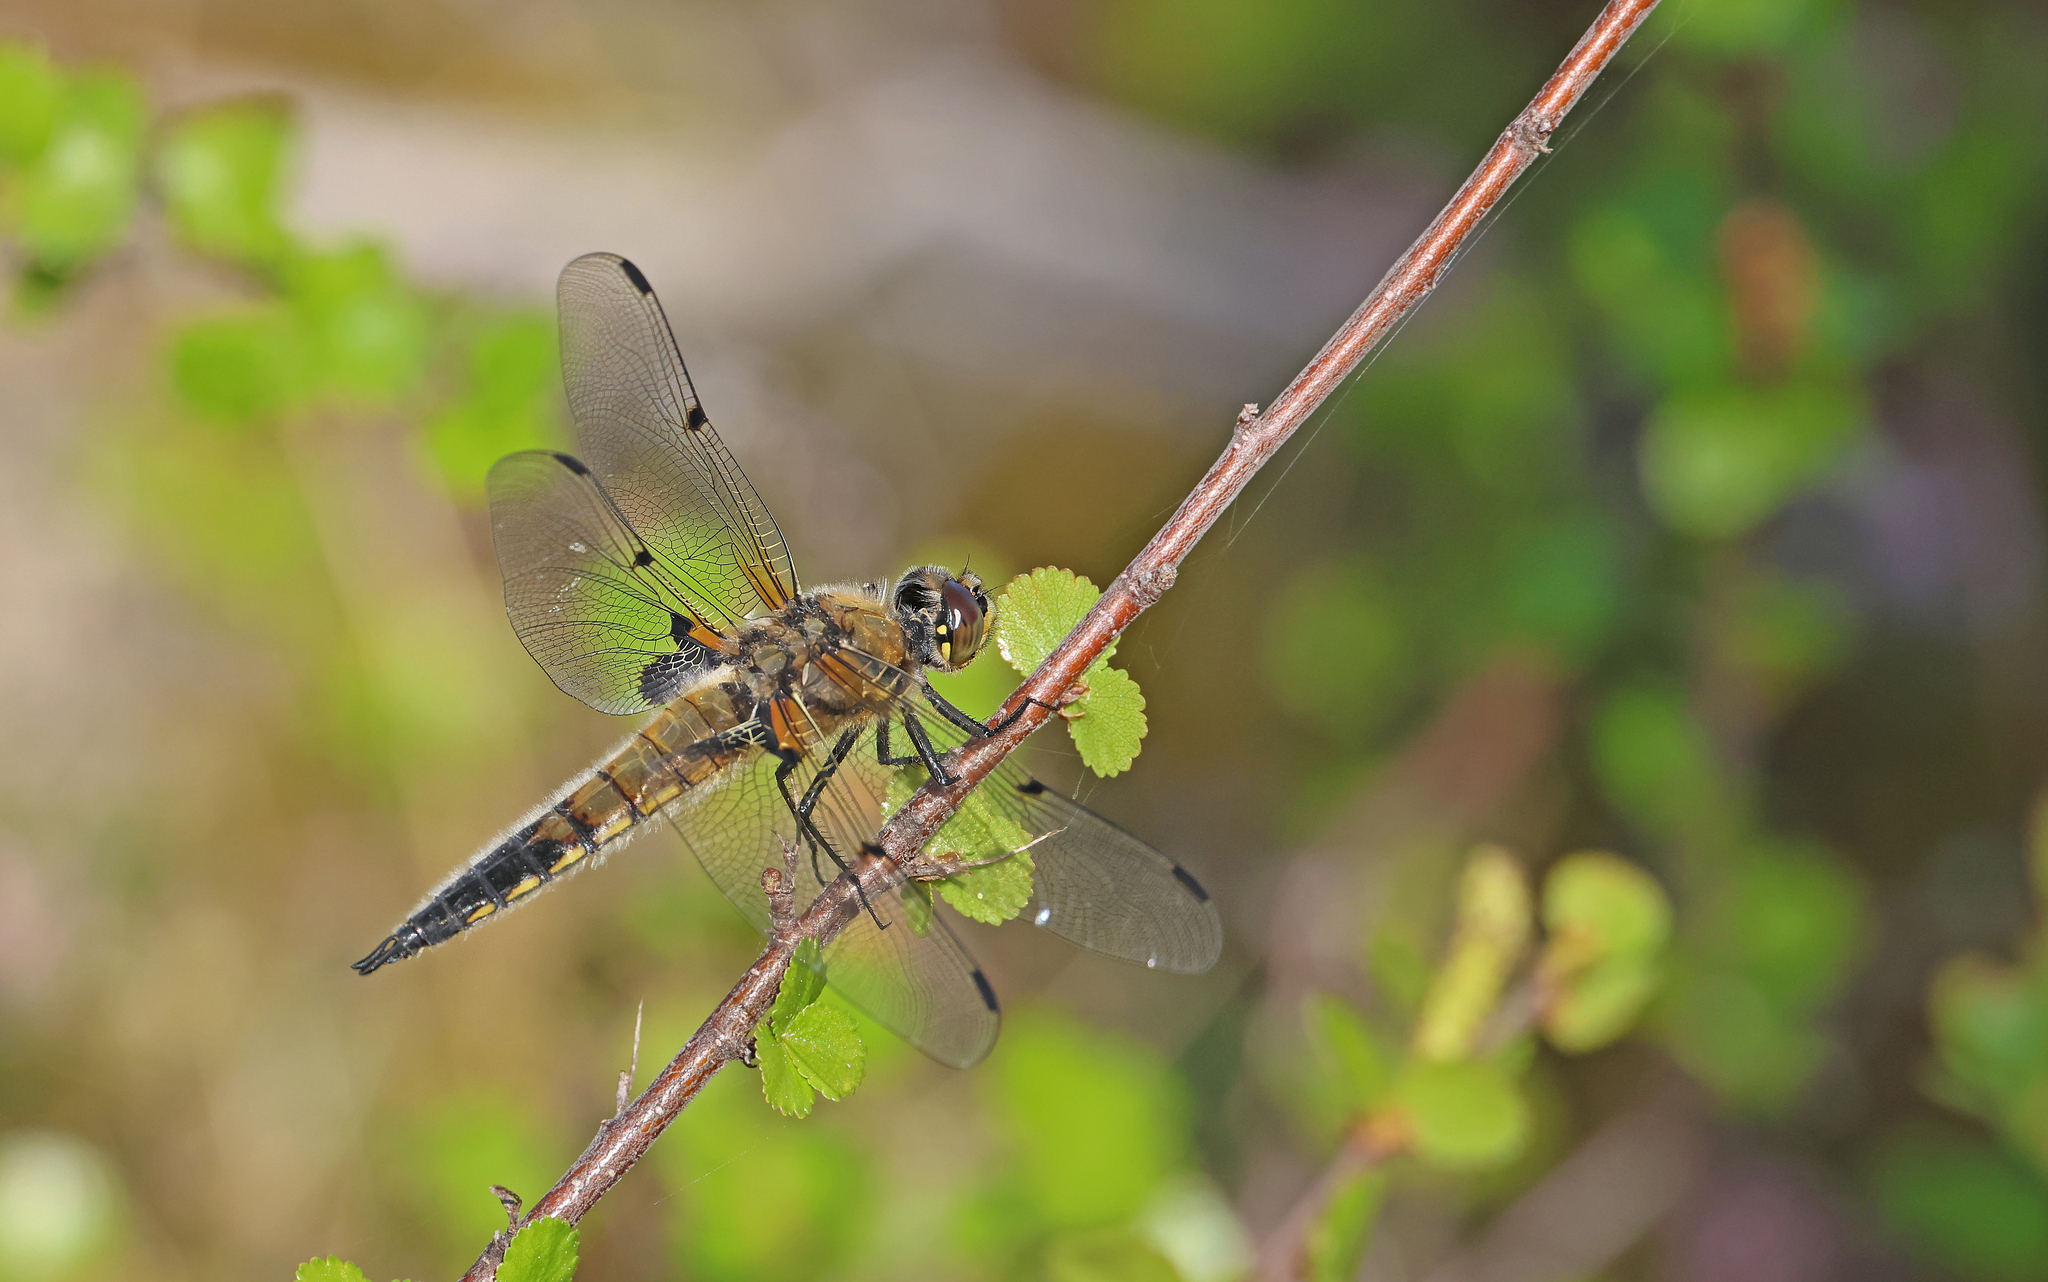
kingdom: Animalia
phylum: Arthropoda
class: Insecta
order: Odonata
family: Libellulidae
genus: Libellula
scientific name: Libellula quadrimaculata
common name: Four-spotted chaser
